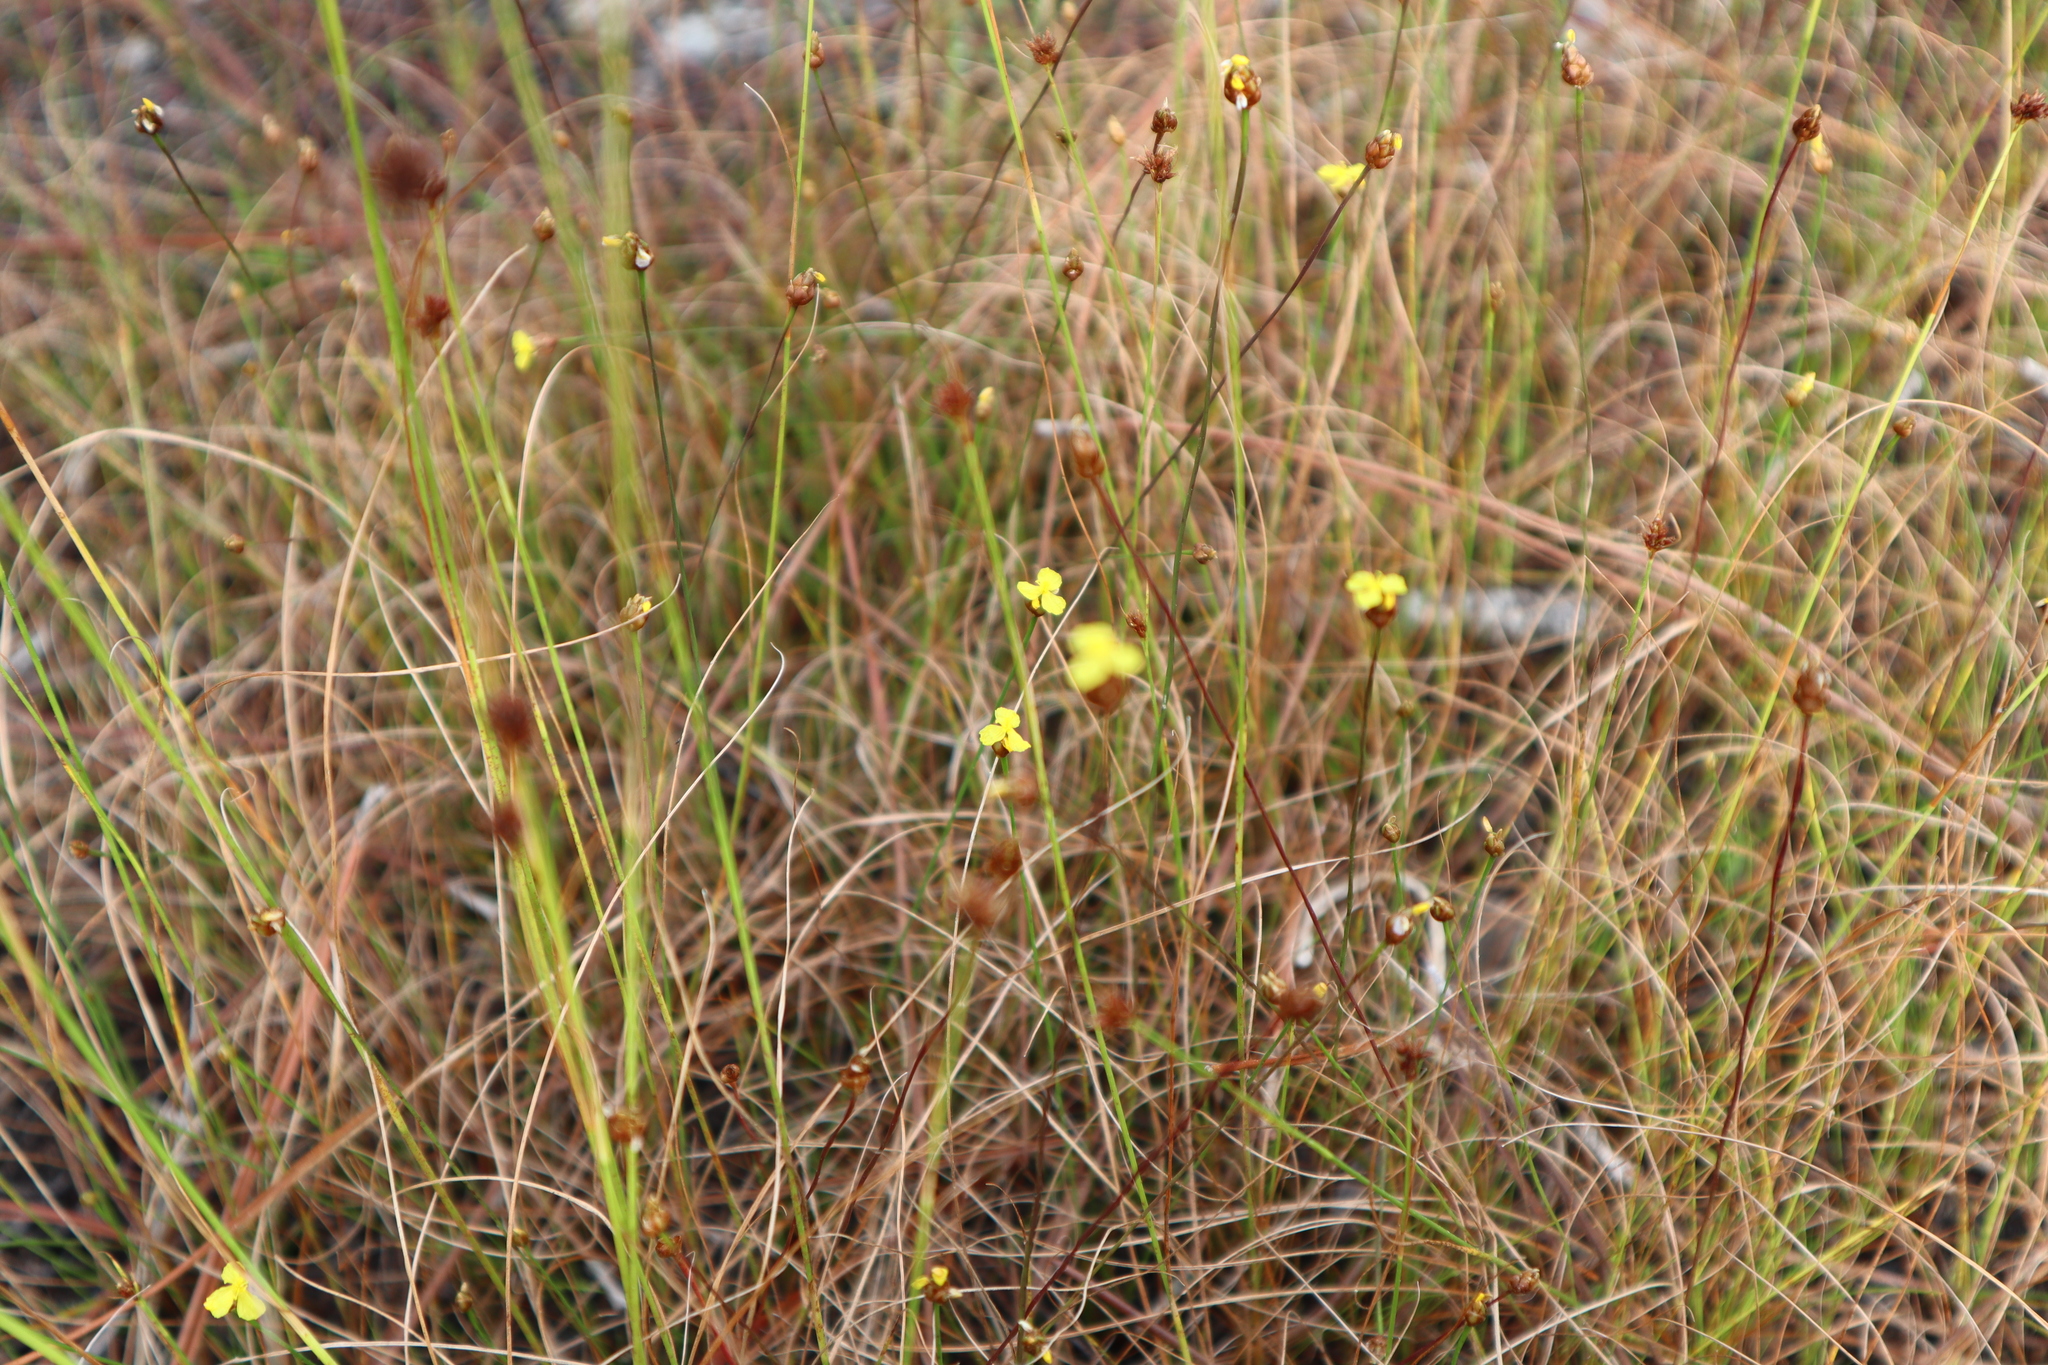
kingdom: Plantae
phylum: Tracheophyta
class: Liliopsida
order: Poales
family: Xyridaceae
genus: Xyris
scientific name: Xyris brevifolia
